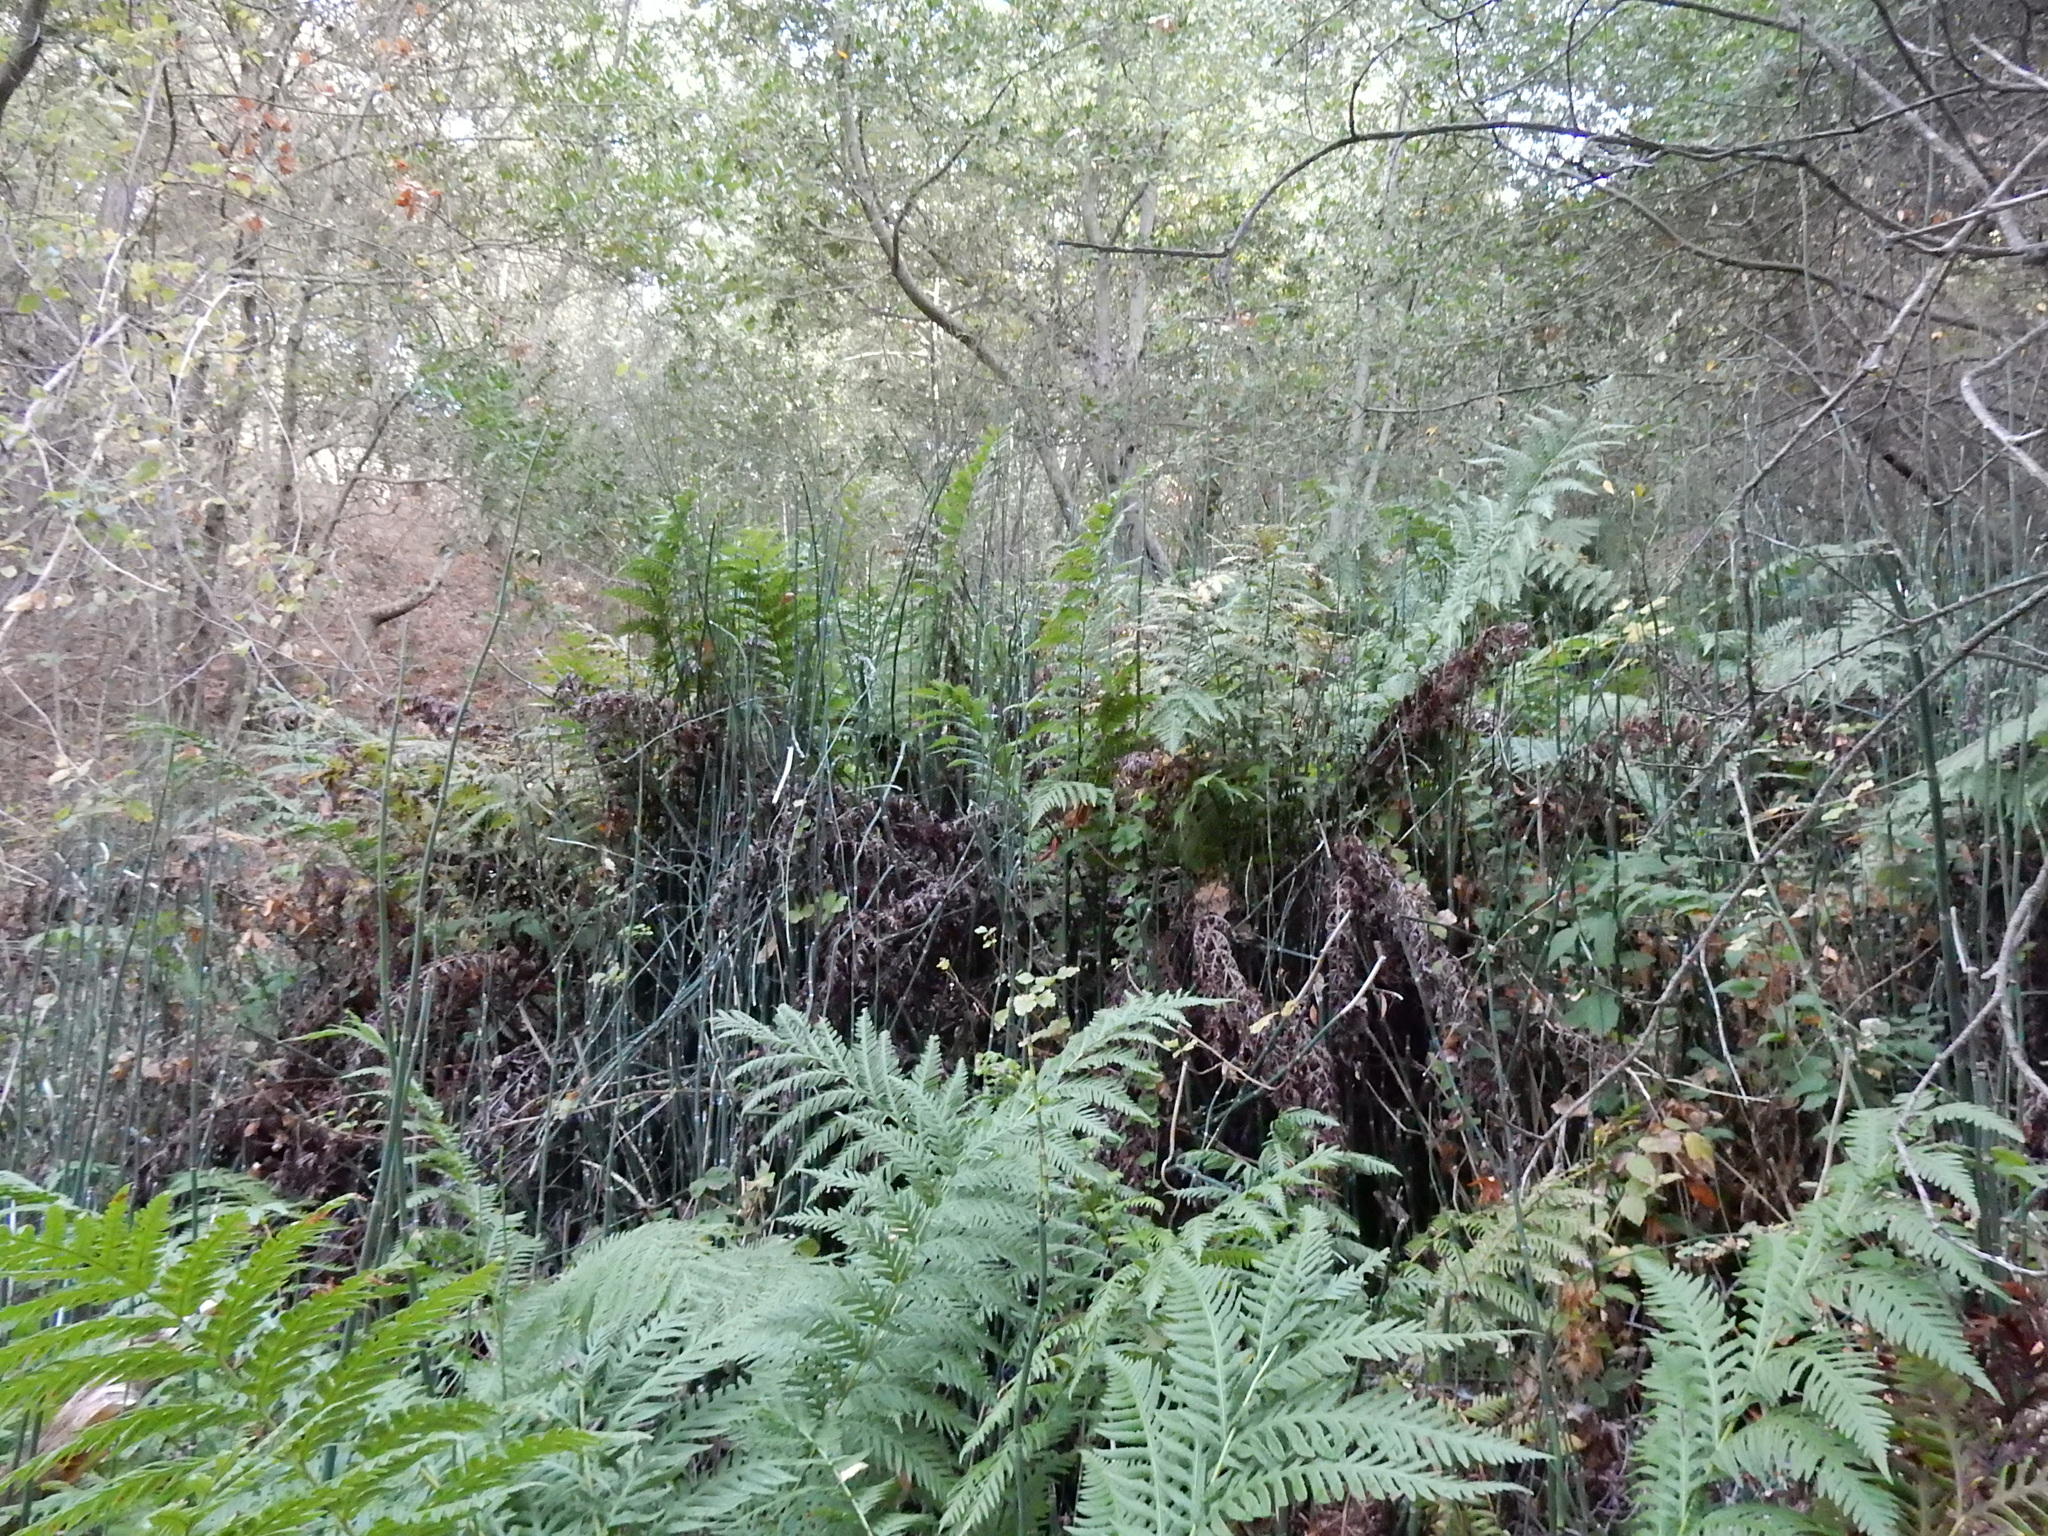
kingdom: Plantae
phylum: Tracheophyta
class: Polypodiopsida
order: Equisetales
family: Equisetaceae
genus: Equisetum
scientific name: Equisetum praealtum
